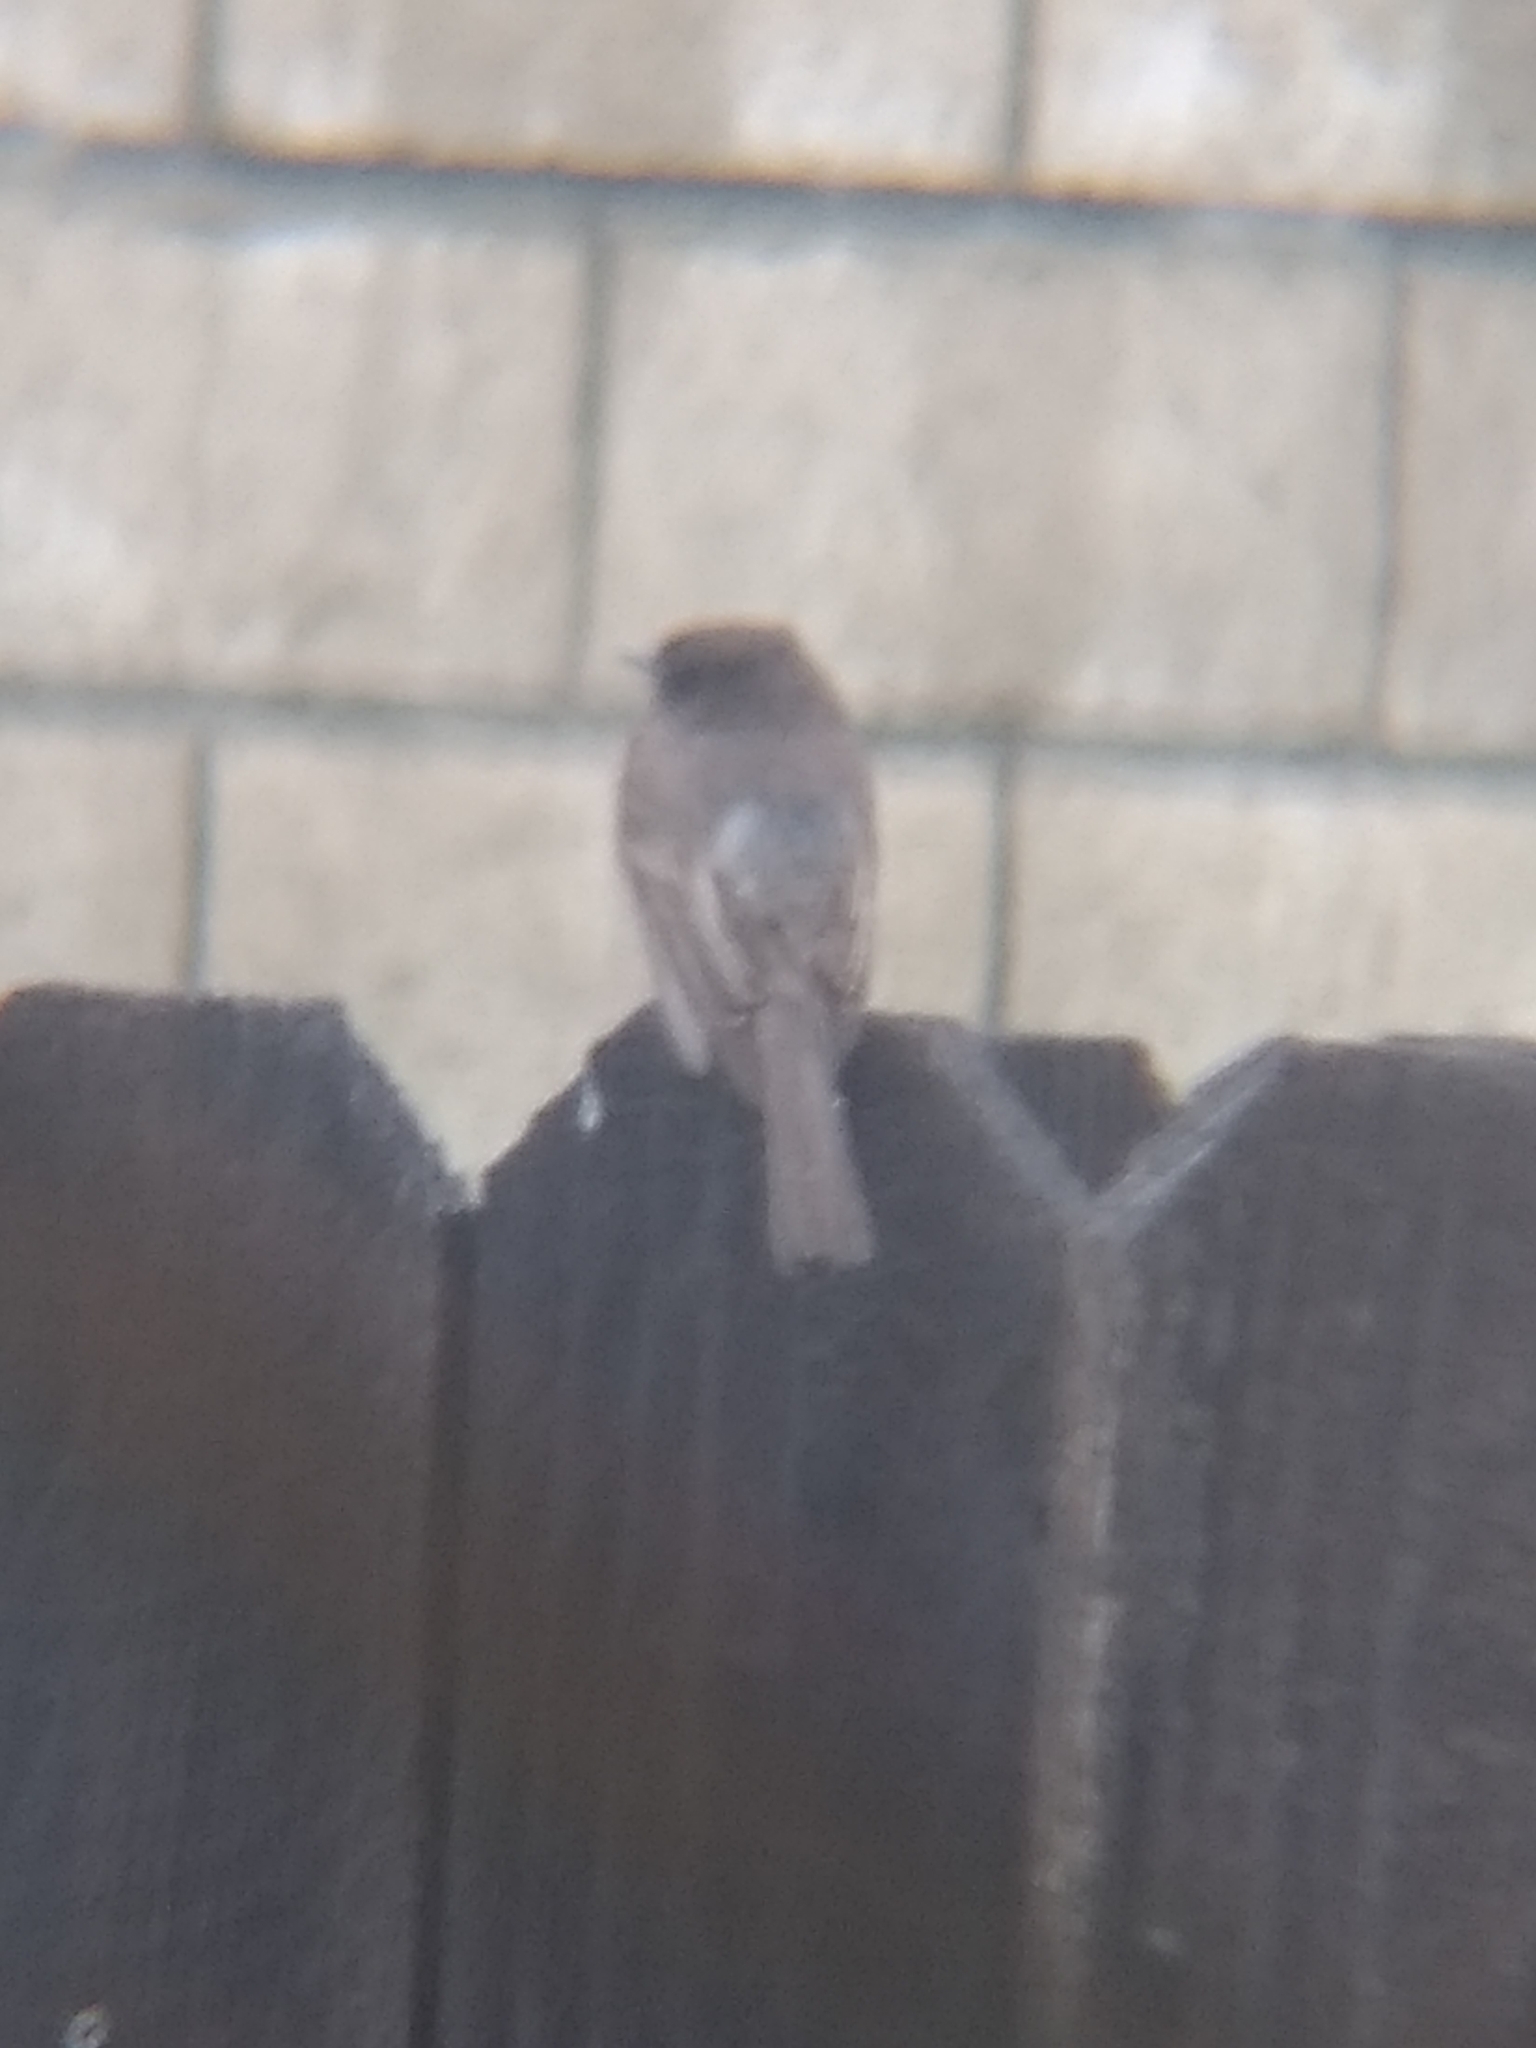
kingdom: Animalia
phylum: Chordata
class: Aves
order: Passeriformes
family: Tyrannidae
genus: Sayornis
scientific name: Sayornis nigricans
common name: Black phoebe
